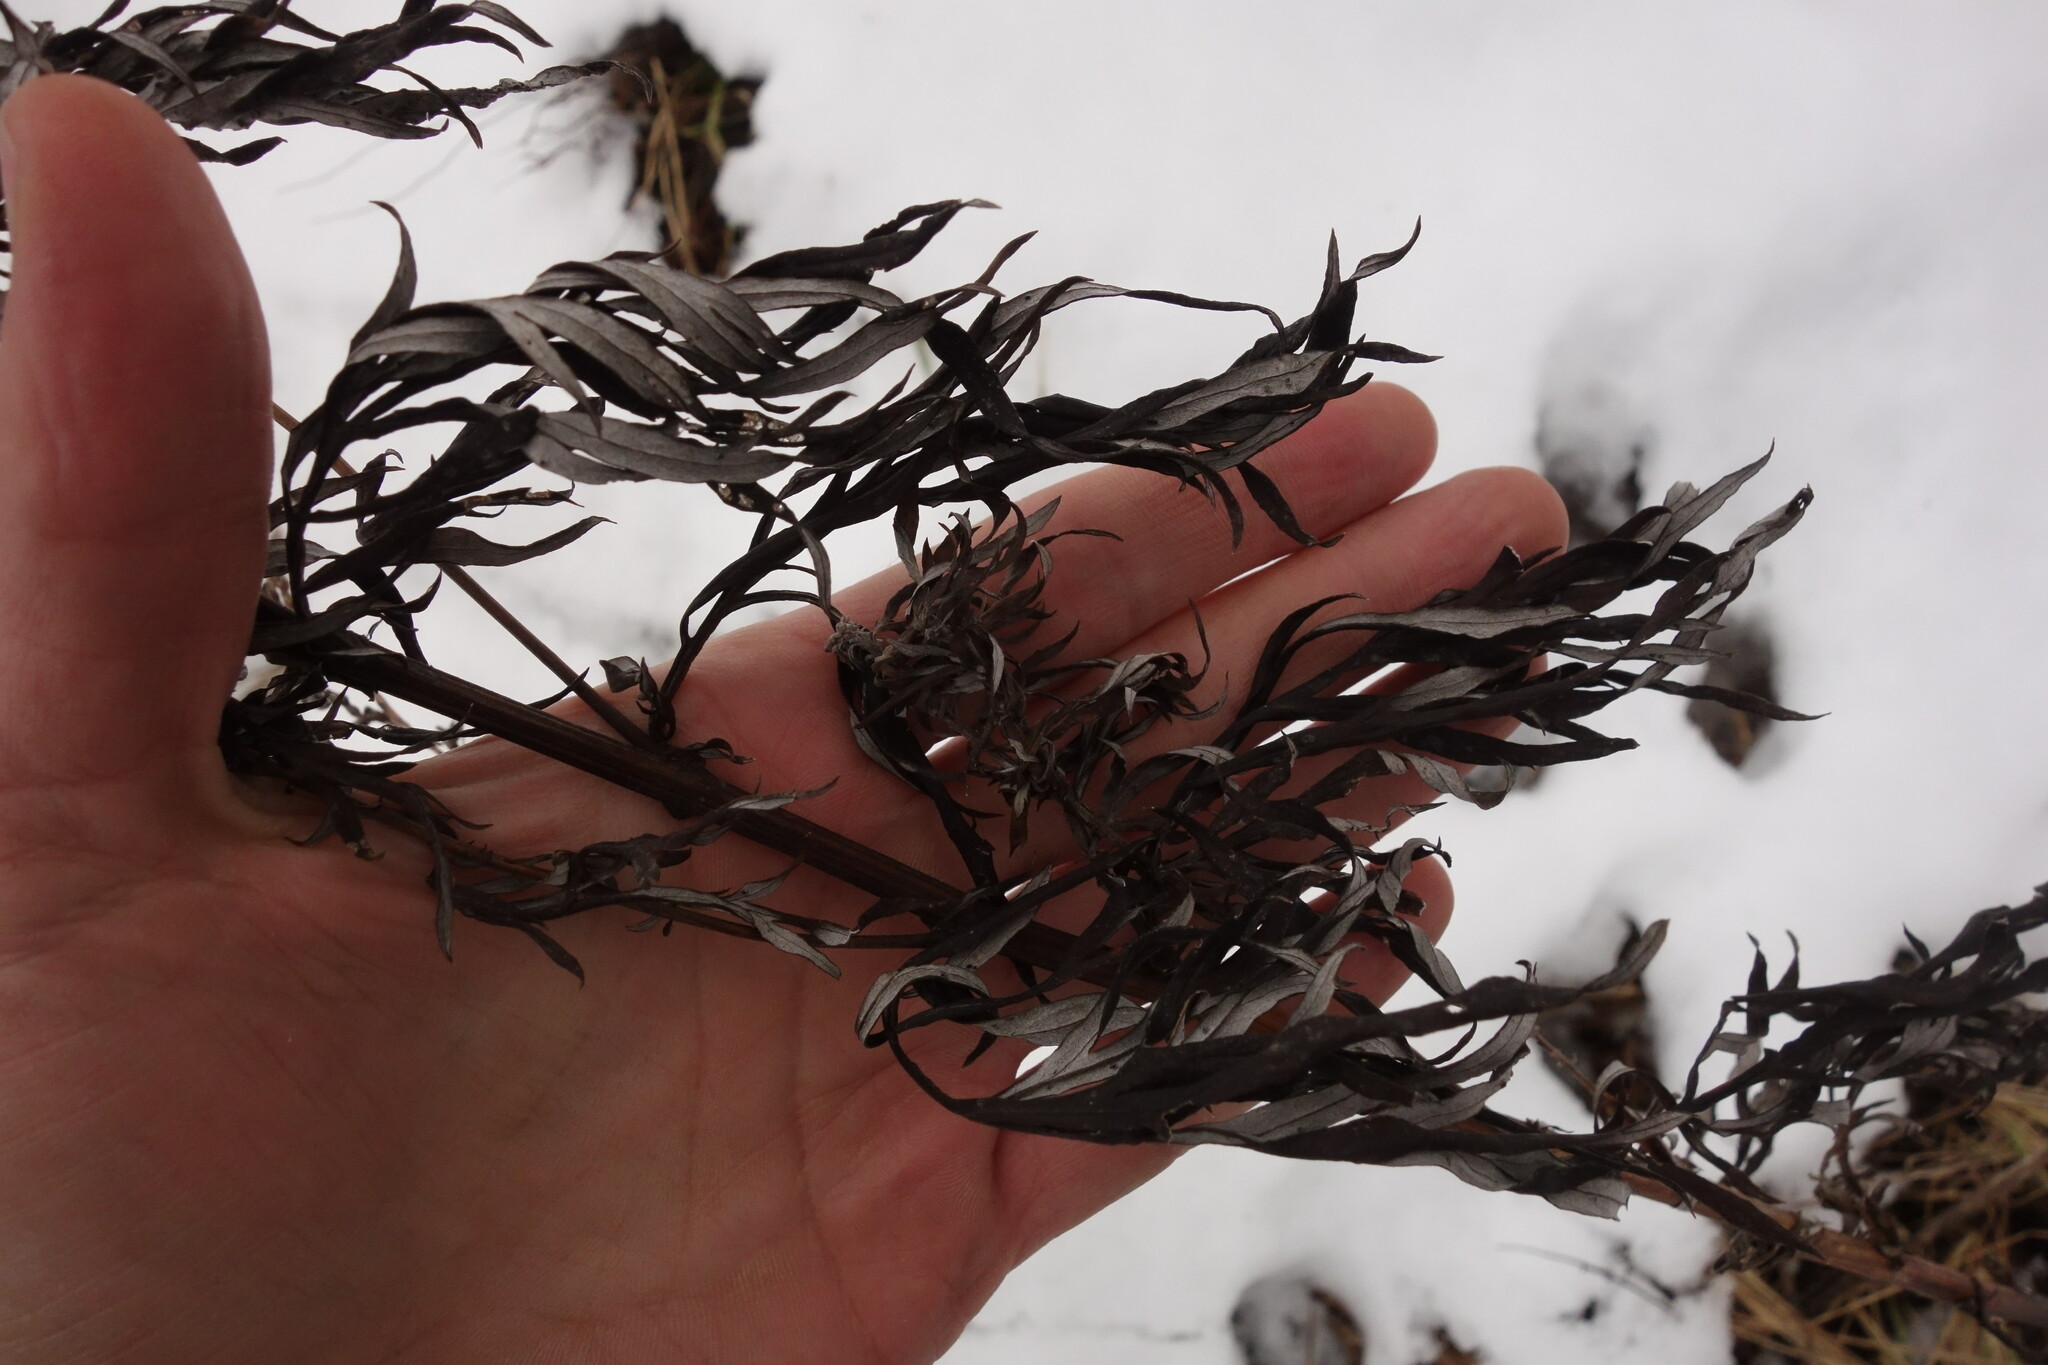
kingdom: Plantae
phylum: Tracheophyta
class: Magnoliopsida
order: Asterales
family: Asteraceae
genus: Artemisia
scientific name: Artemisia vulgaris
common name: Mugwort
